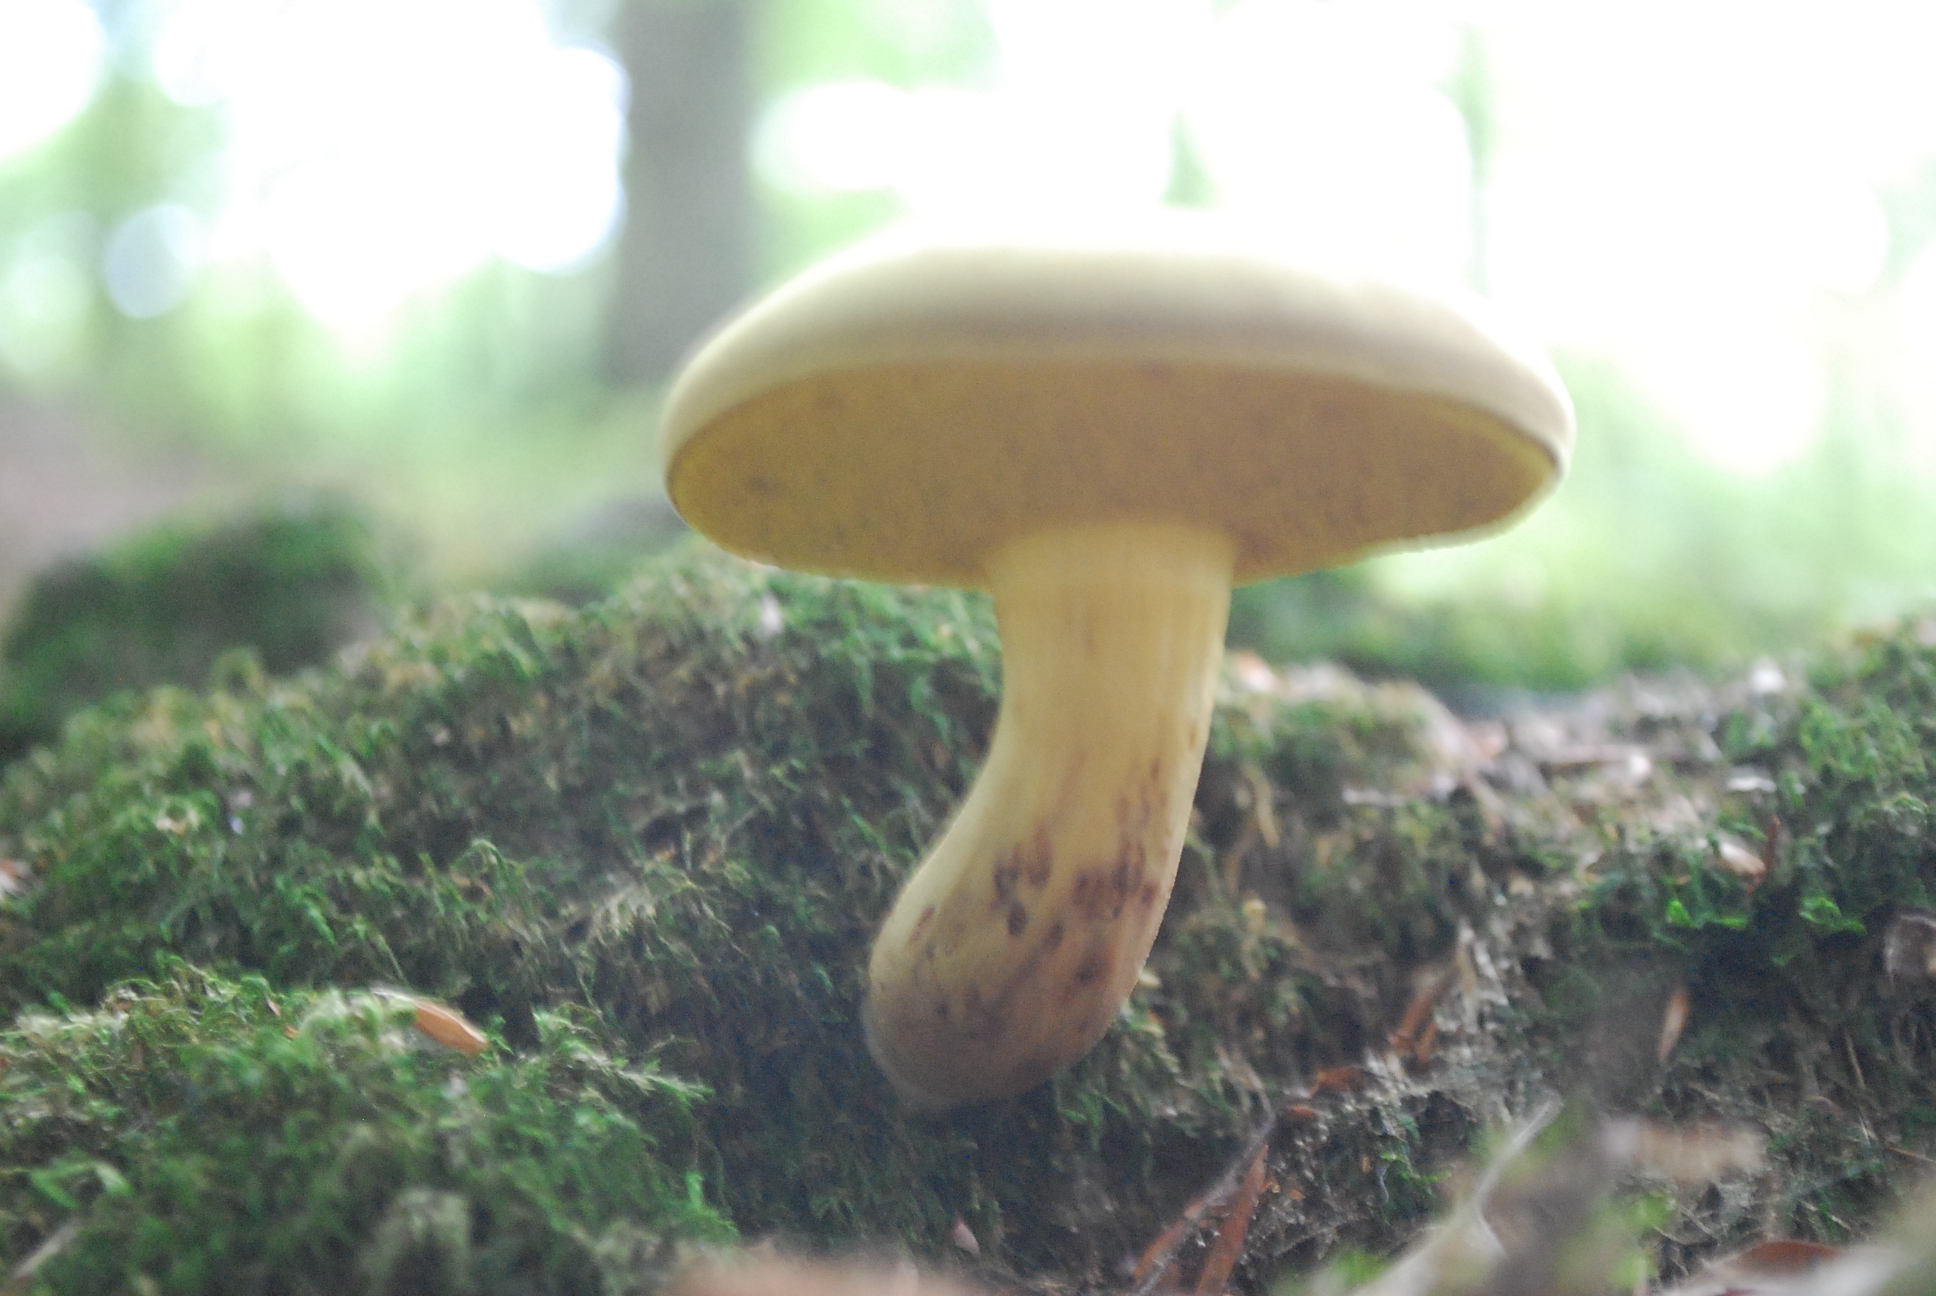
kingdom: Fungi
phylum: Basidiomycota
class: Agaricomycetes
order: Boletales
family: Boletaceae
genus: Xerocomus
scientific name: Xerocomus subtomentosus
